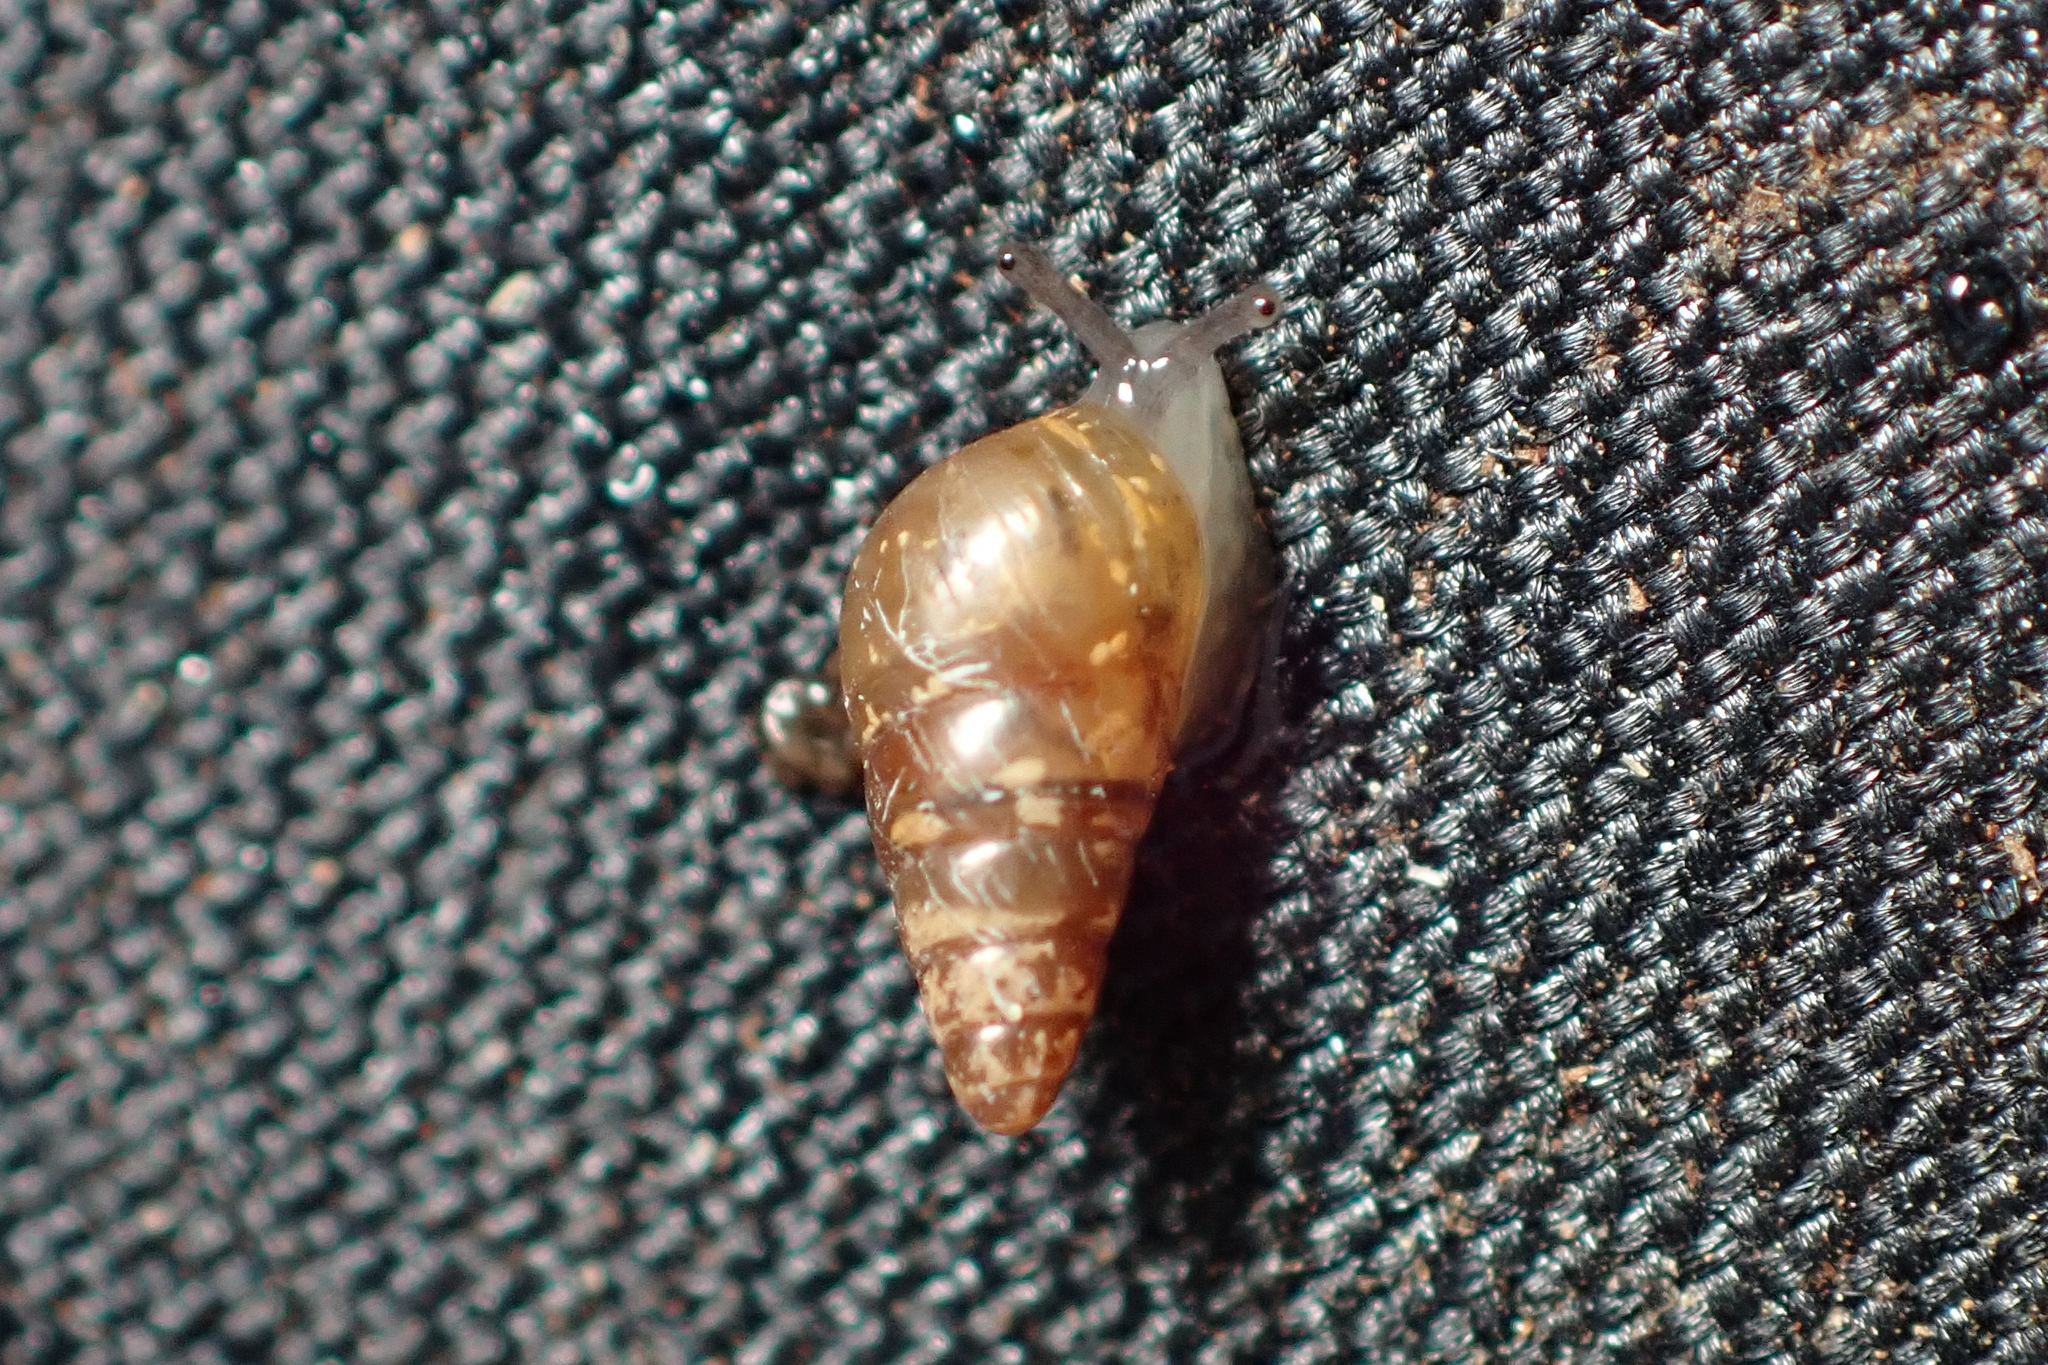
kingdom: Animalia
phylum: Mollusca
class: Gastropoda
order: Stylommatophora
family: Achatinellidae
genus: Tornatellides
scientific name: Tornatellides subperforatus
